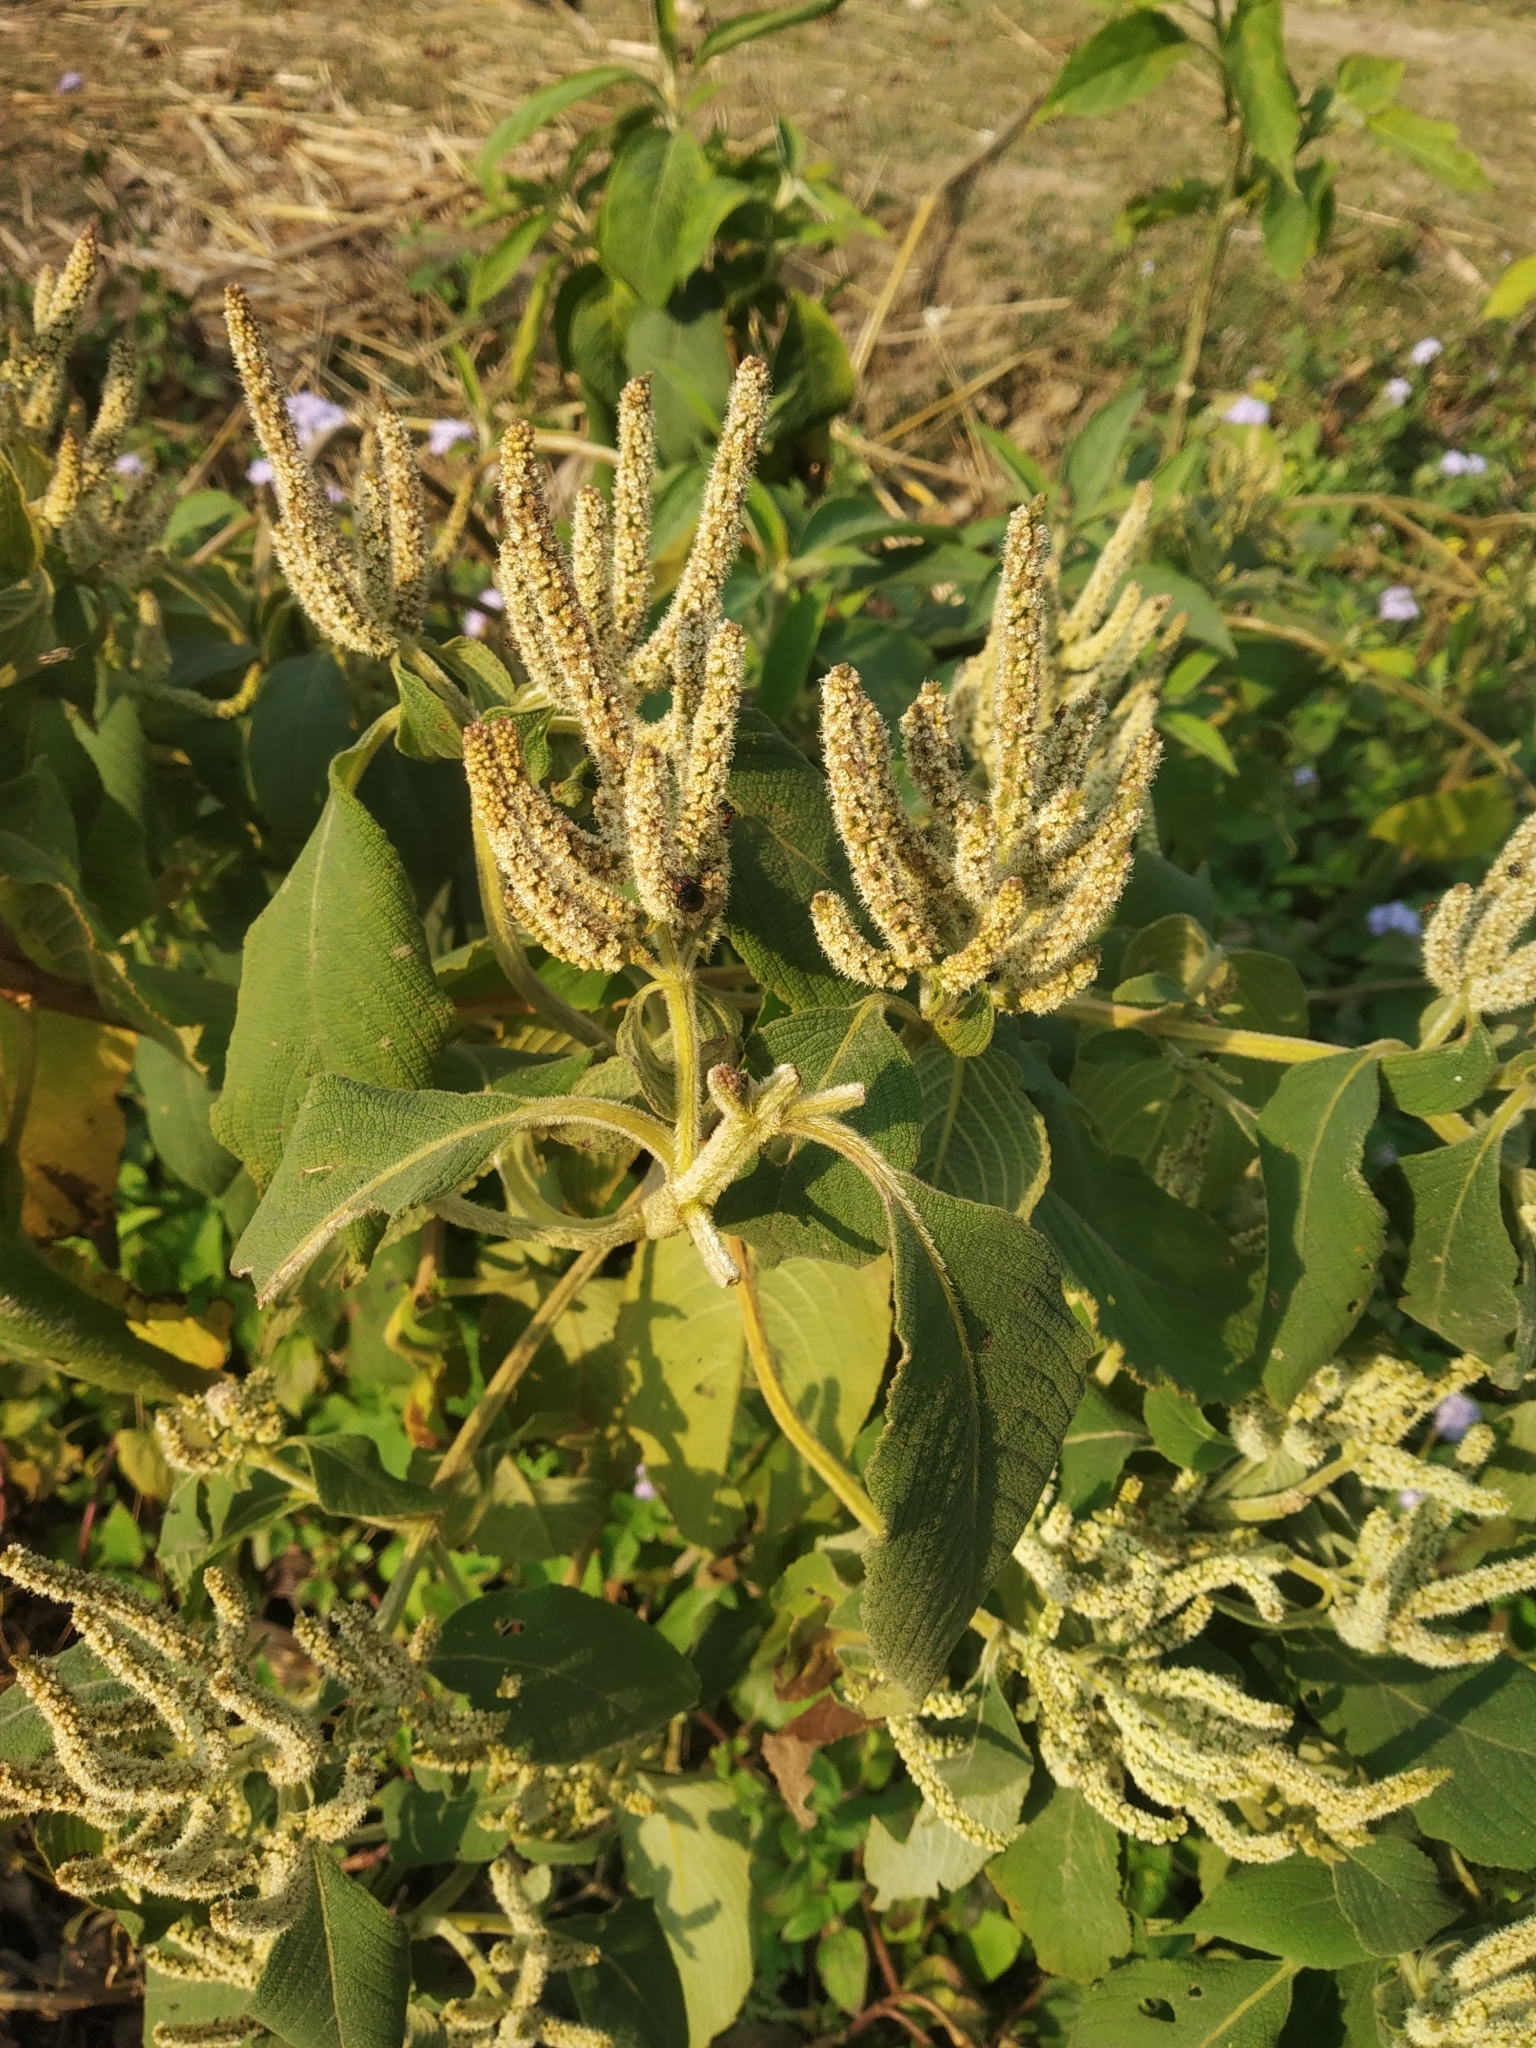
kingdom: Plantae
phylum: Tracheophyta
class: Magnoliopsida
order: Lamiales
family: Lamiaceae
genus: Colebrookea
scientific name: Colebrookea oppositifolia
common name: Indian squirrel tail
